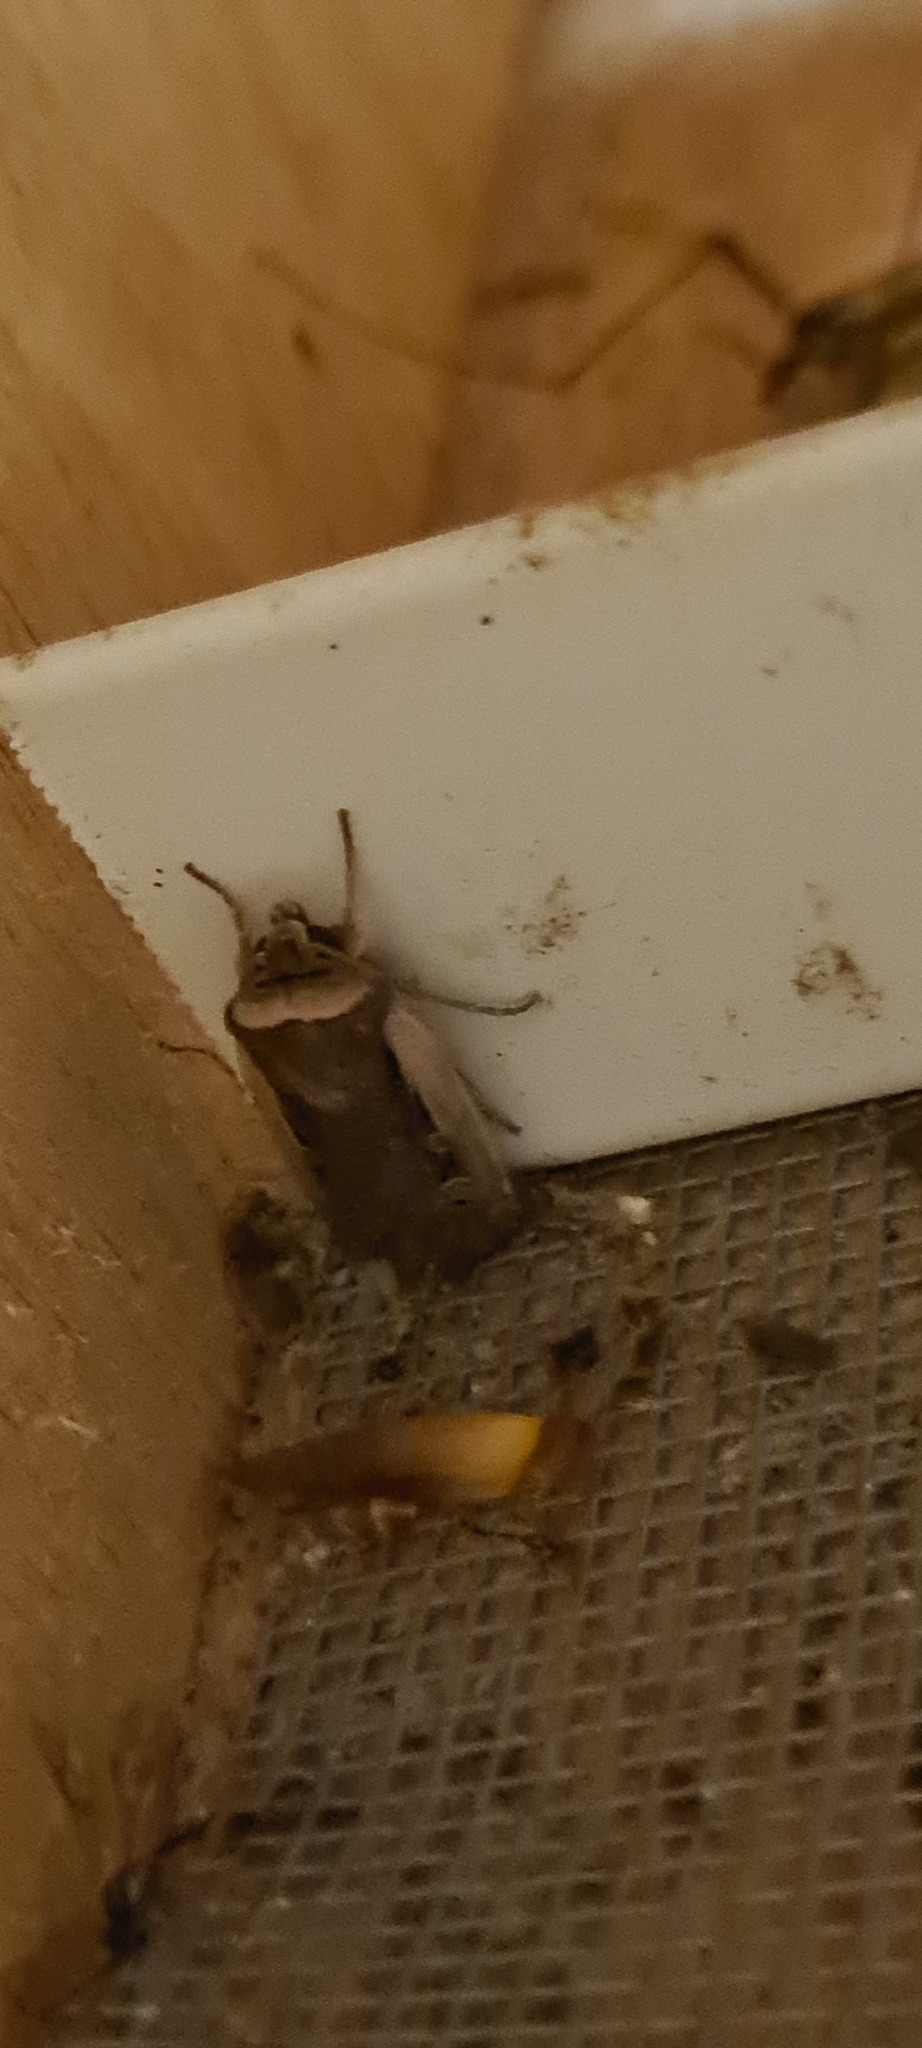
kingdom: Animalia
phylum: Arthropoda
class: Insecta
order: Lepidoptera
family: Noctuidae
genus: Ochropleura
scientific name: Ochropleura plecta
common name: Flame shoulder
